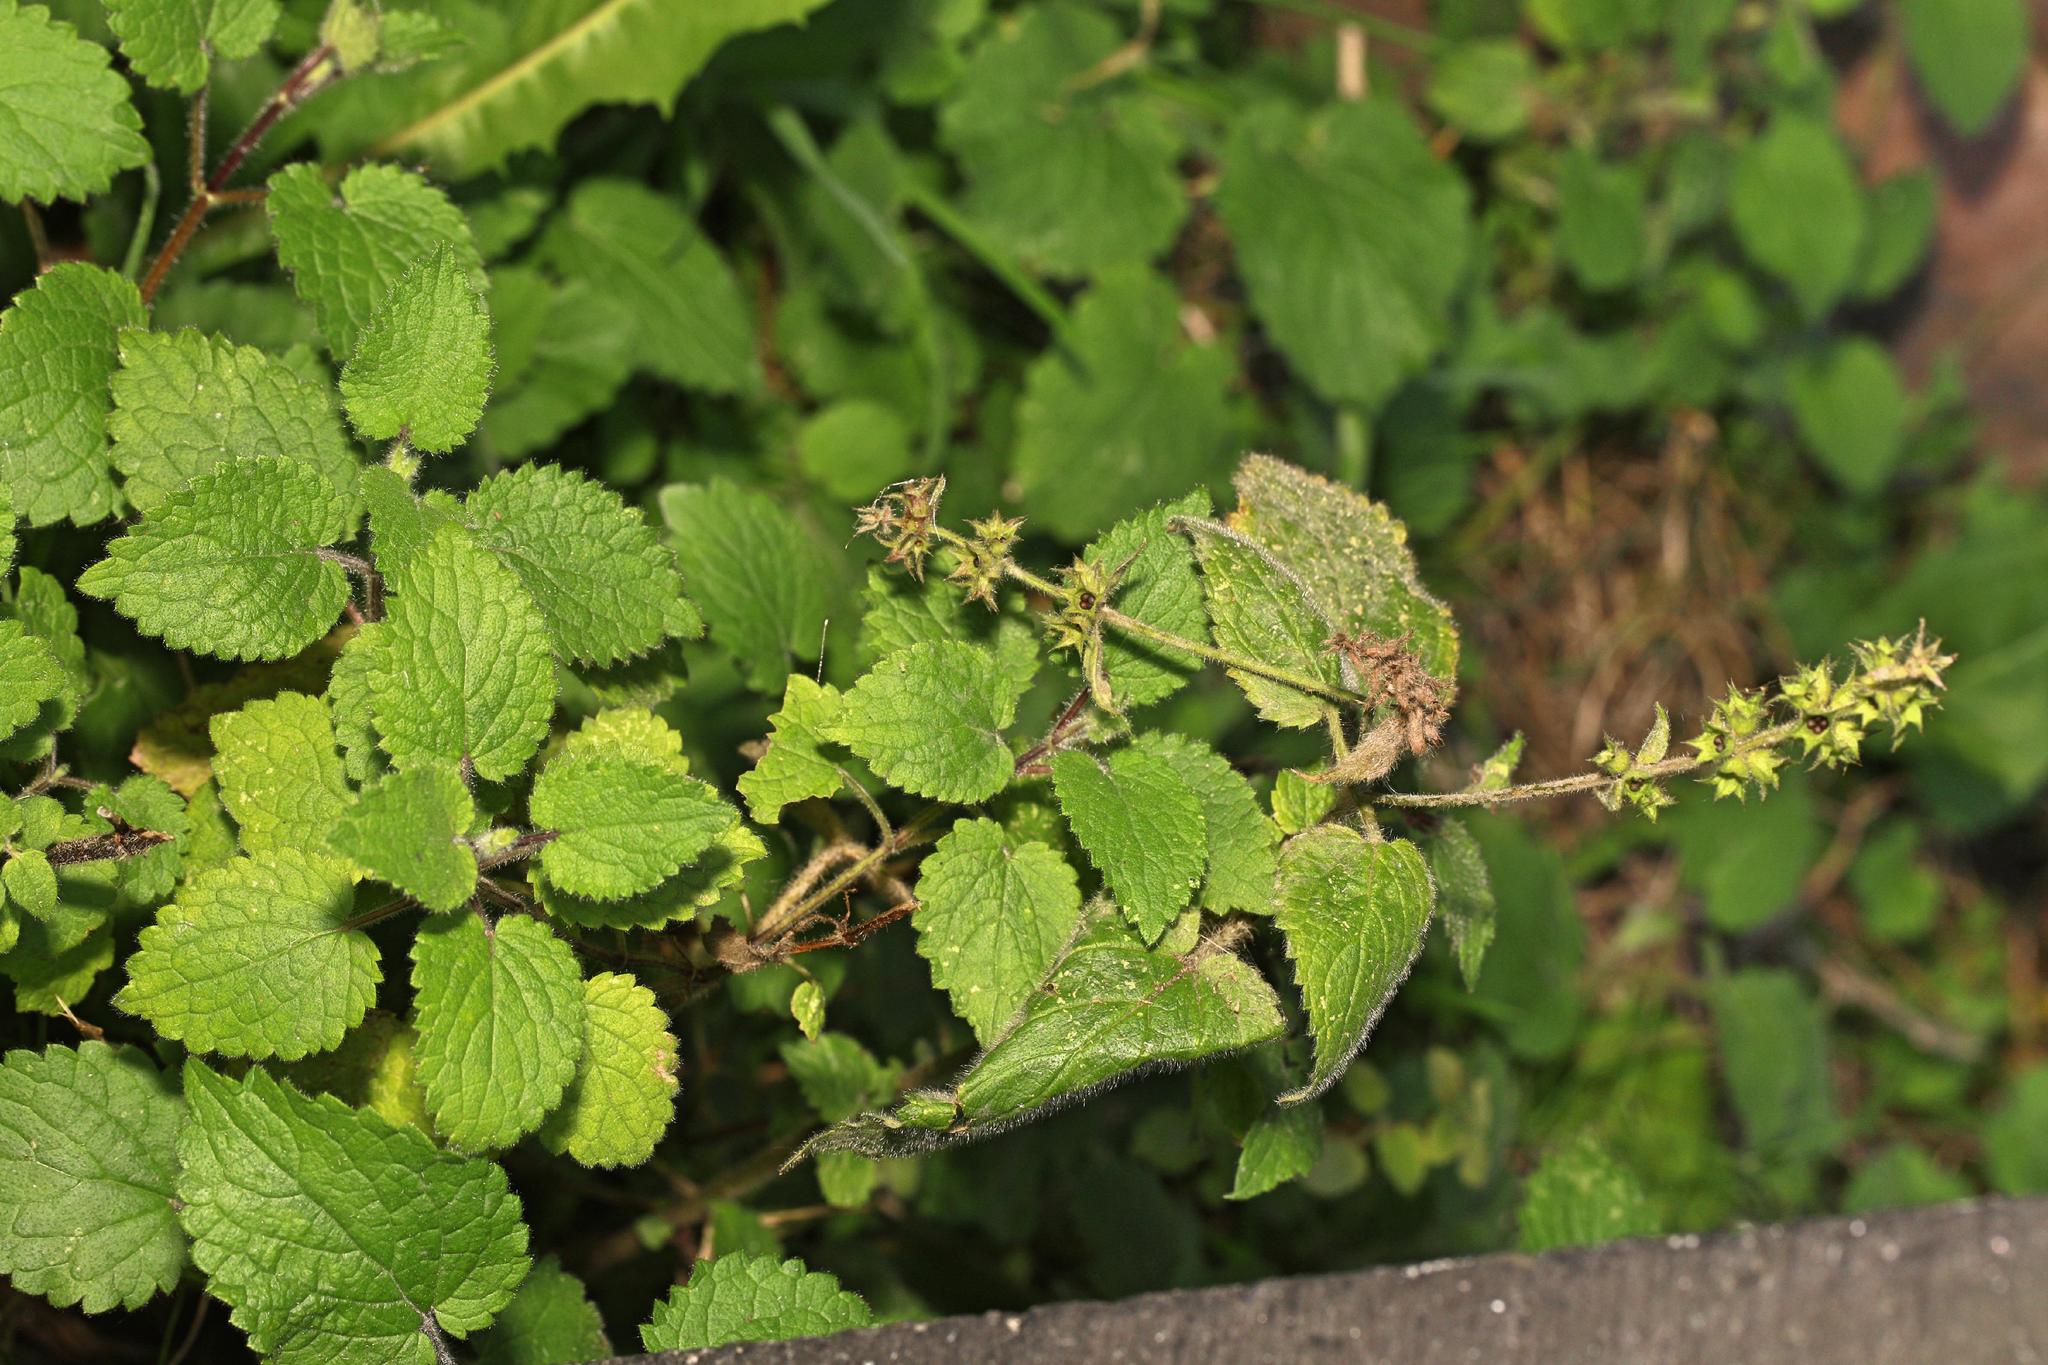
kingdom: Plantae
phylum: Tracheophyta
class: Magnoliopsida
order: Lamiales
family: Lamiaceae
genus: Stachys
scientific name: Stachys sylvatica
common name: Hedge woundwort
